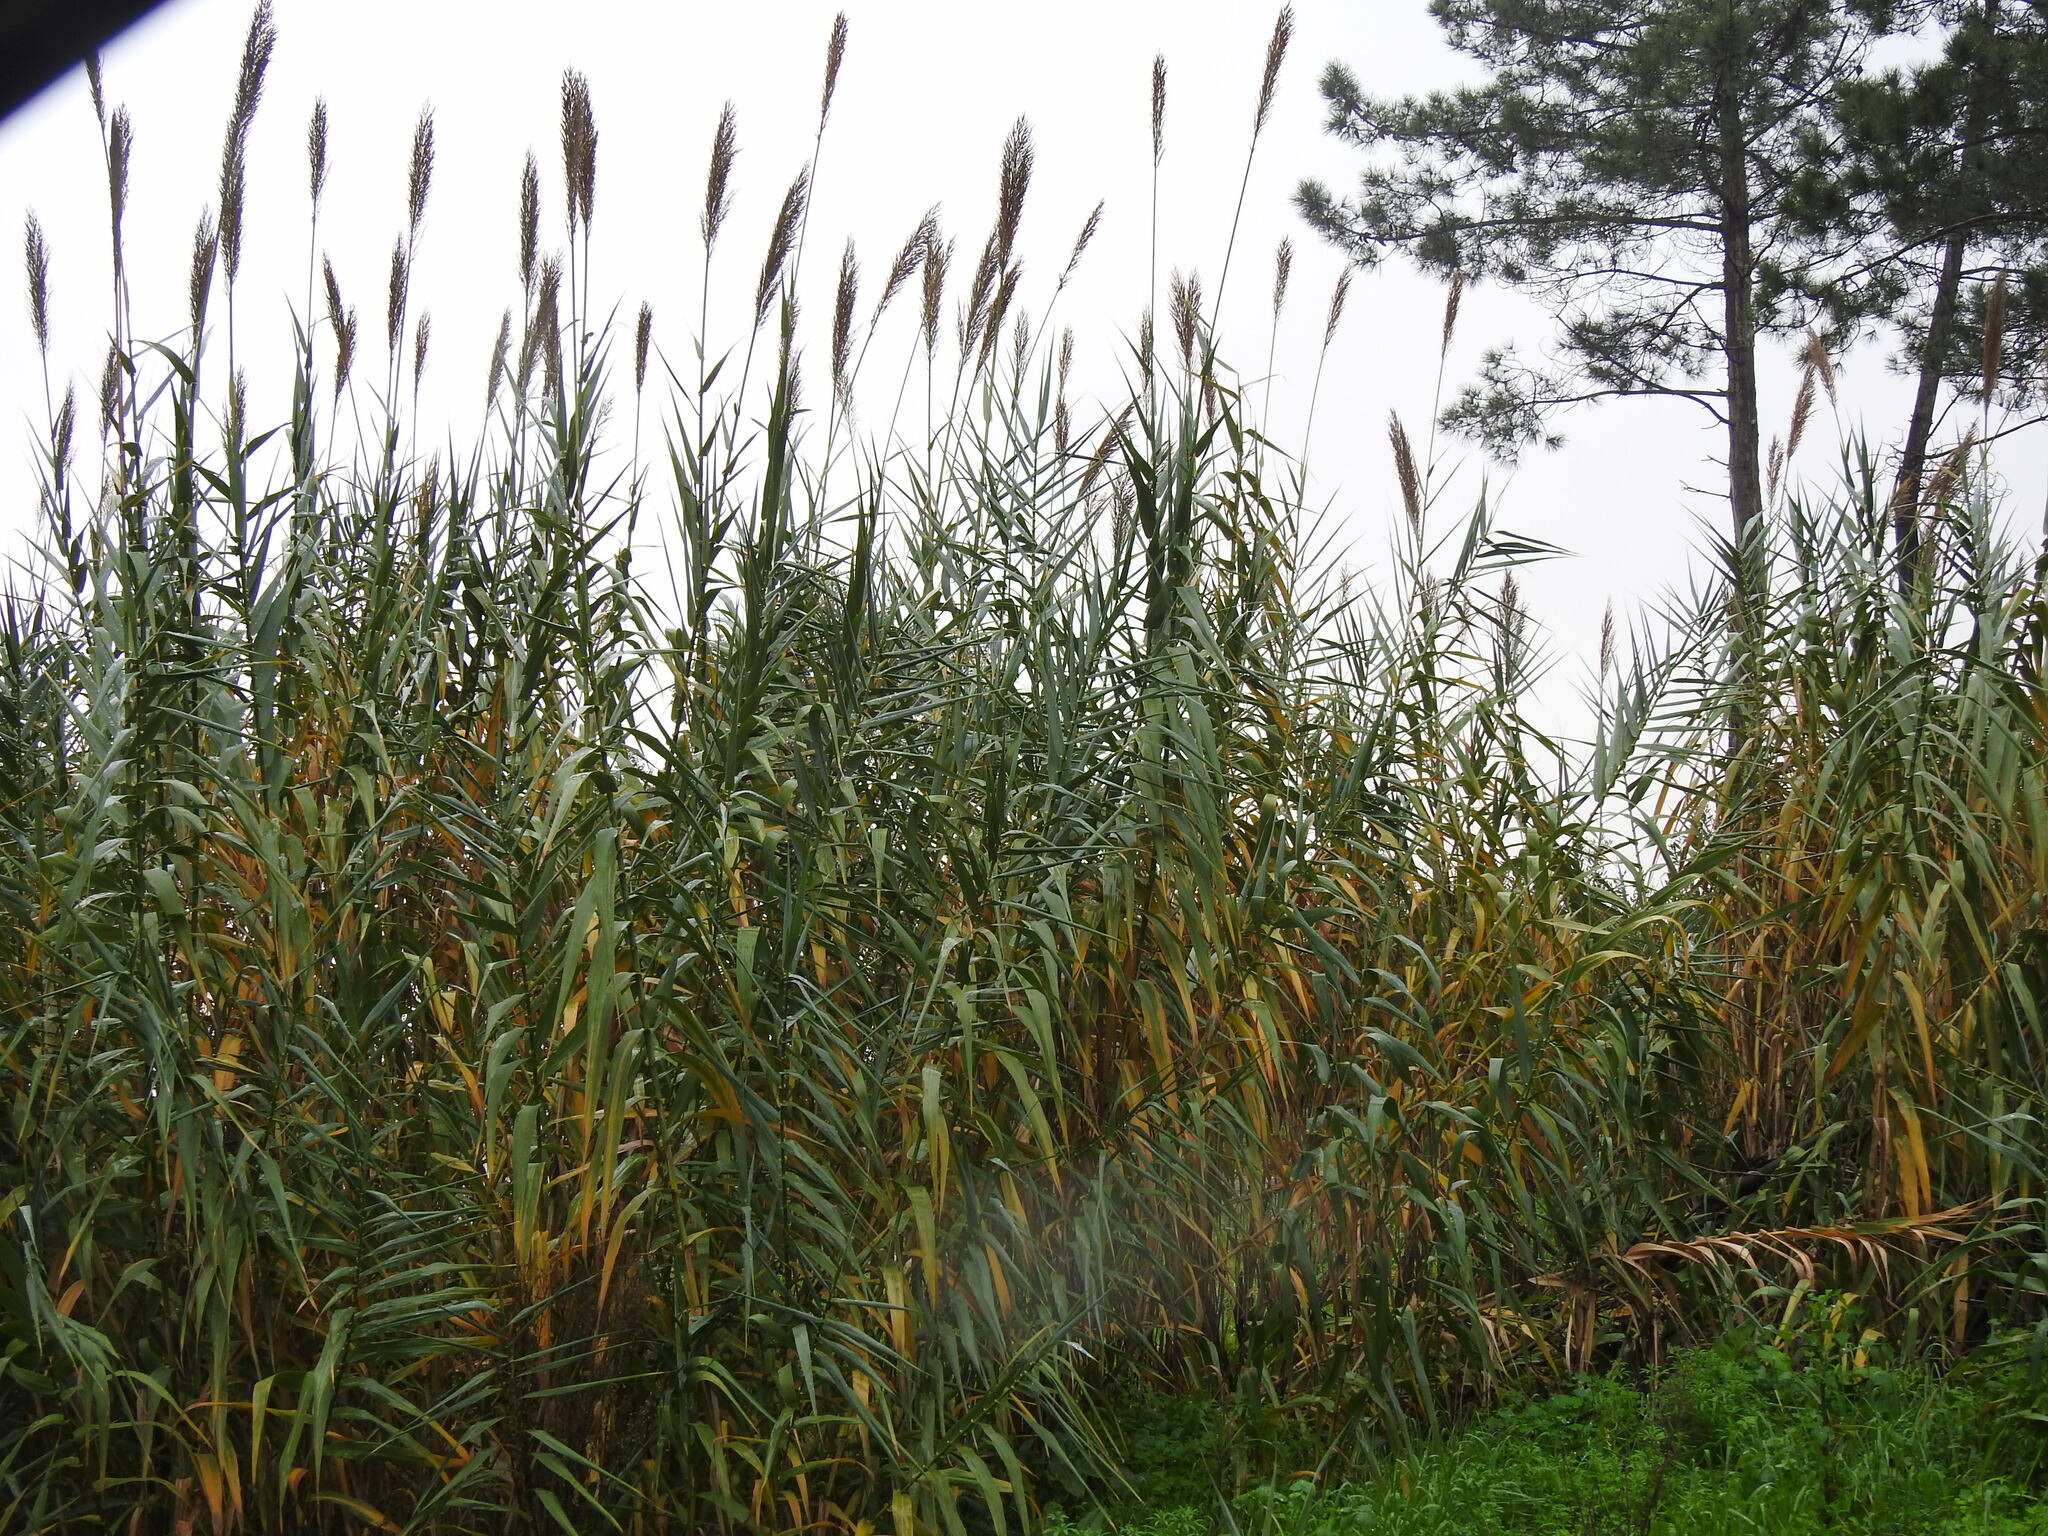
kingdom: Plantae
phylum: Tracheophyta
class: Liliopsida
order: Poales
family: Poaceae
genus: Arundo
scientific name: Arundo donax
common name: Giant reed
